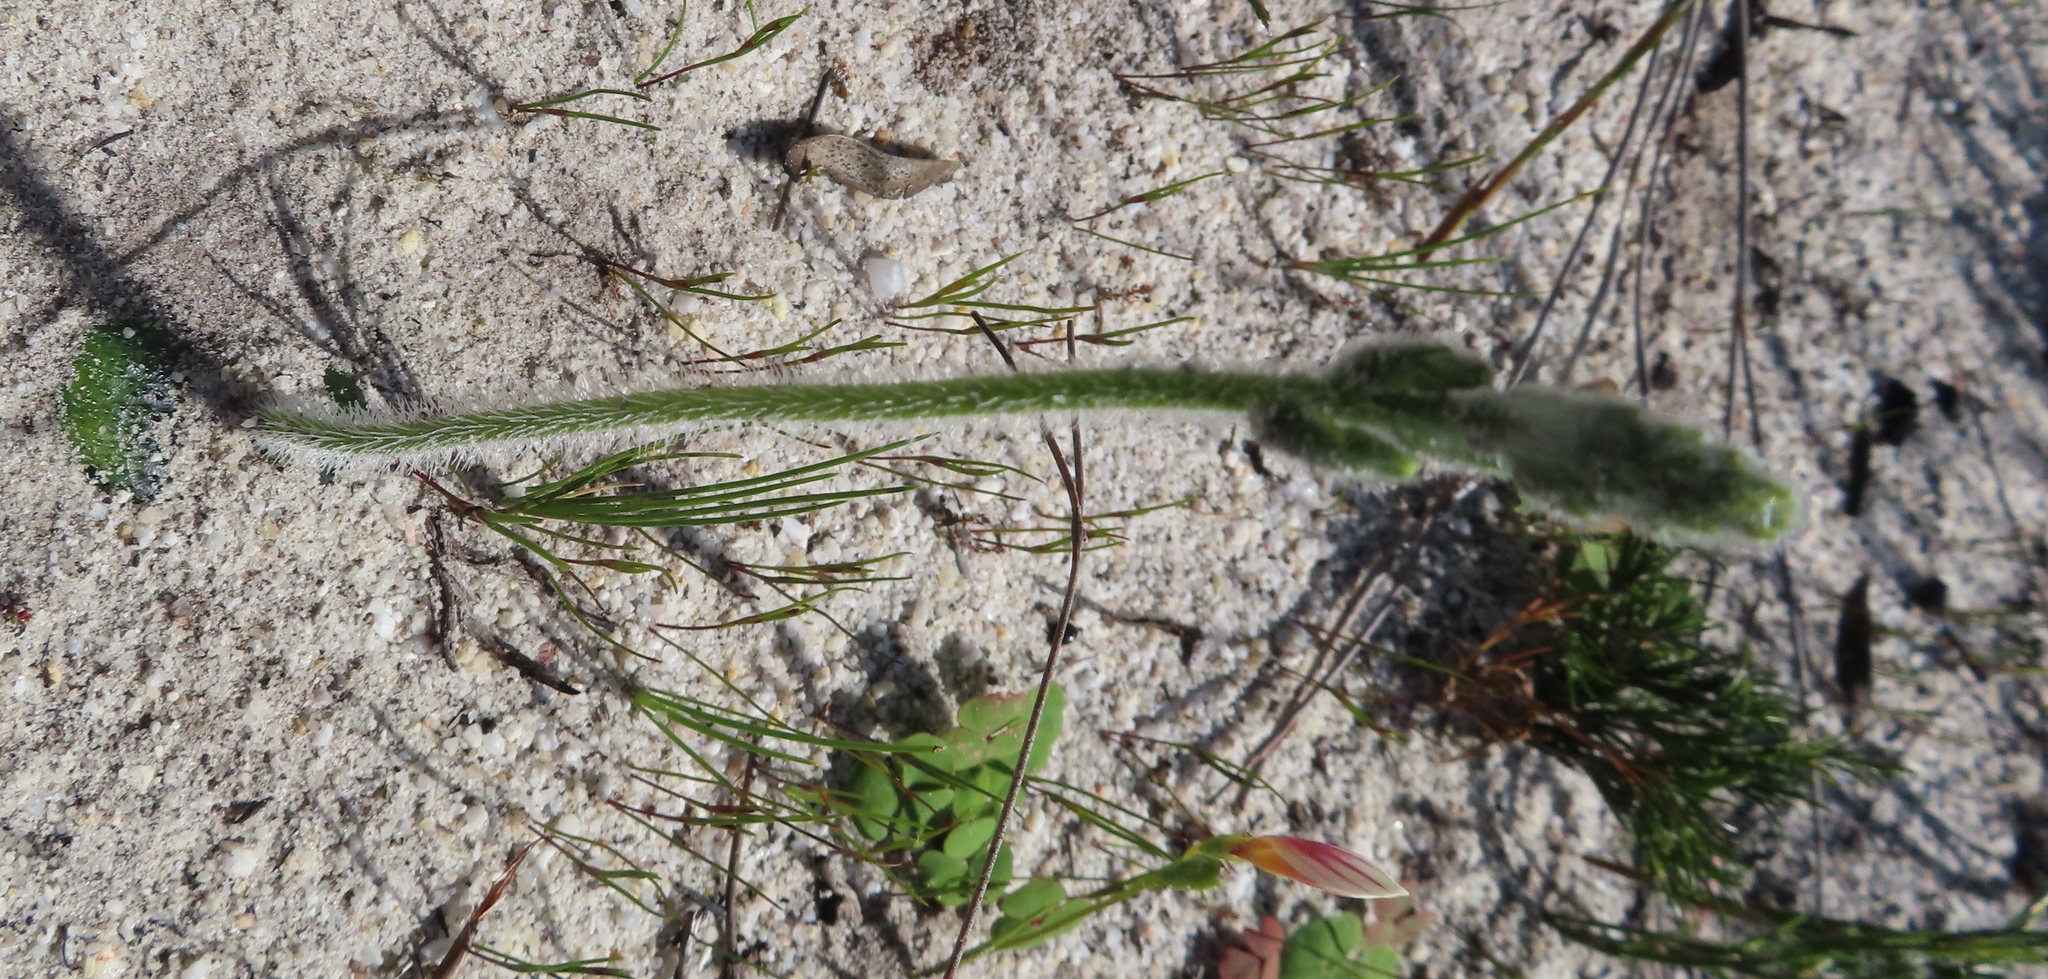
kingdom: Plantae
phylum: Tracheophyta
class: Liliopsida
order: Asparagales
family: Orchidaceae
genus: Holothrix
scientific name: Holothrix cernua
